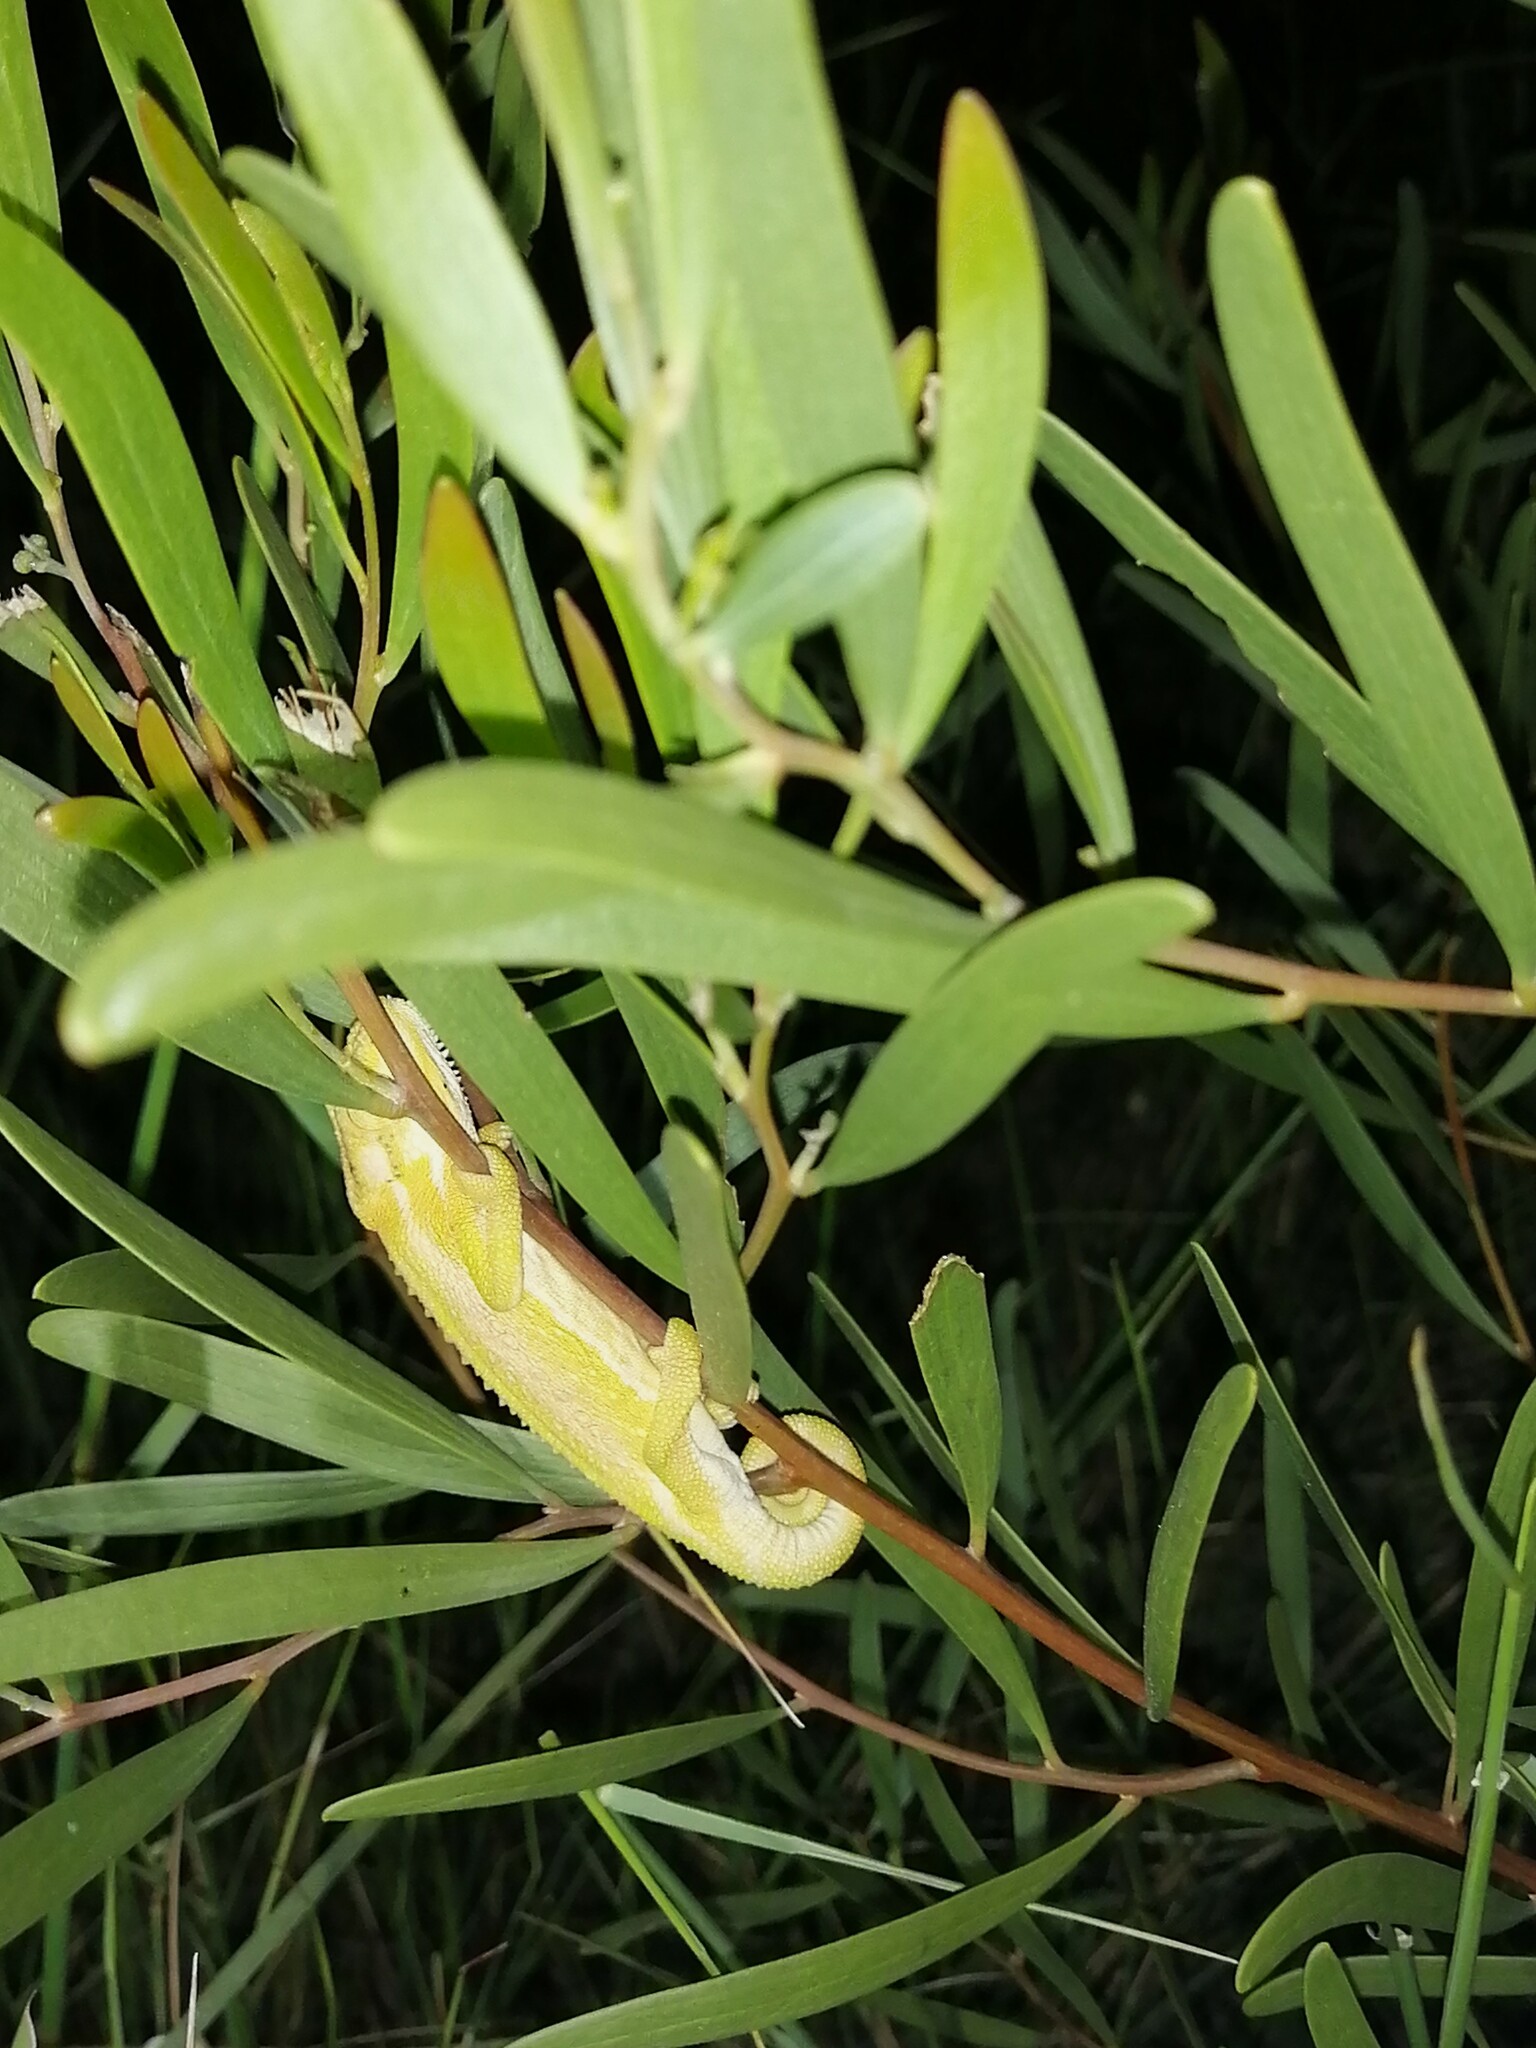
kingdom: Animalia
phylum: Chordata
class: Squamata
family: Chamaeleonidae
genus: Bradypodion
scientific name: Bradypodion pumilum
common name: Cape dwarf chameleon
